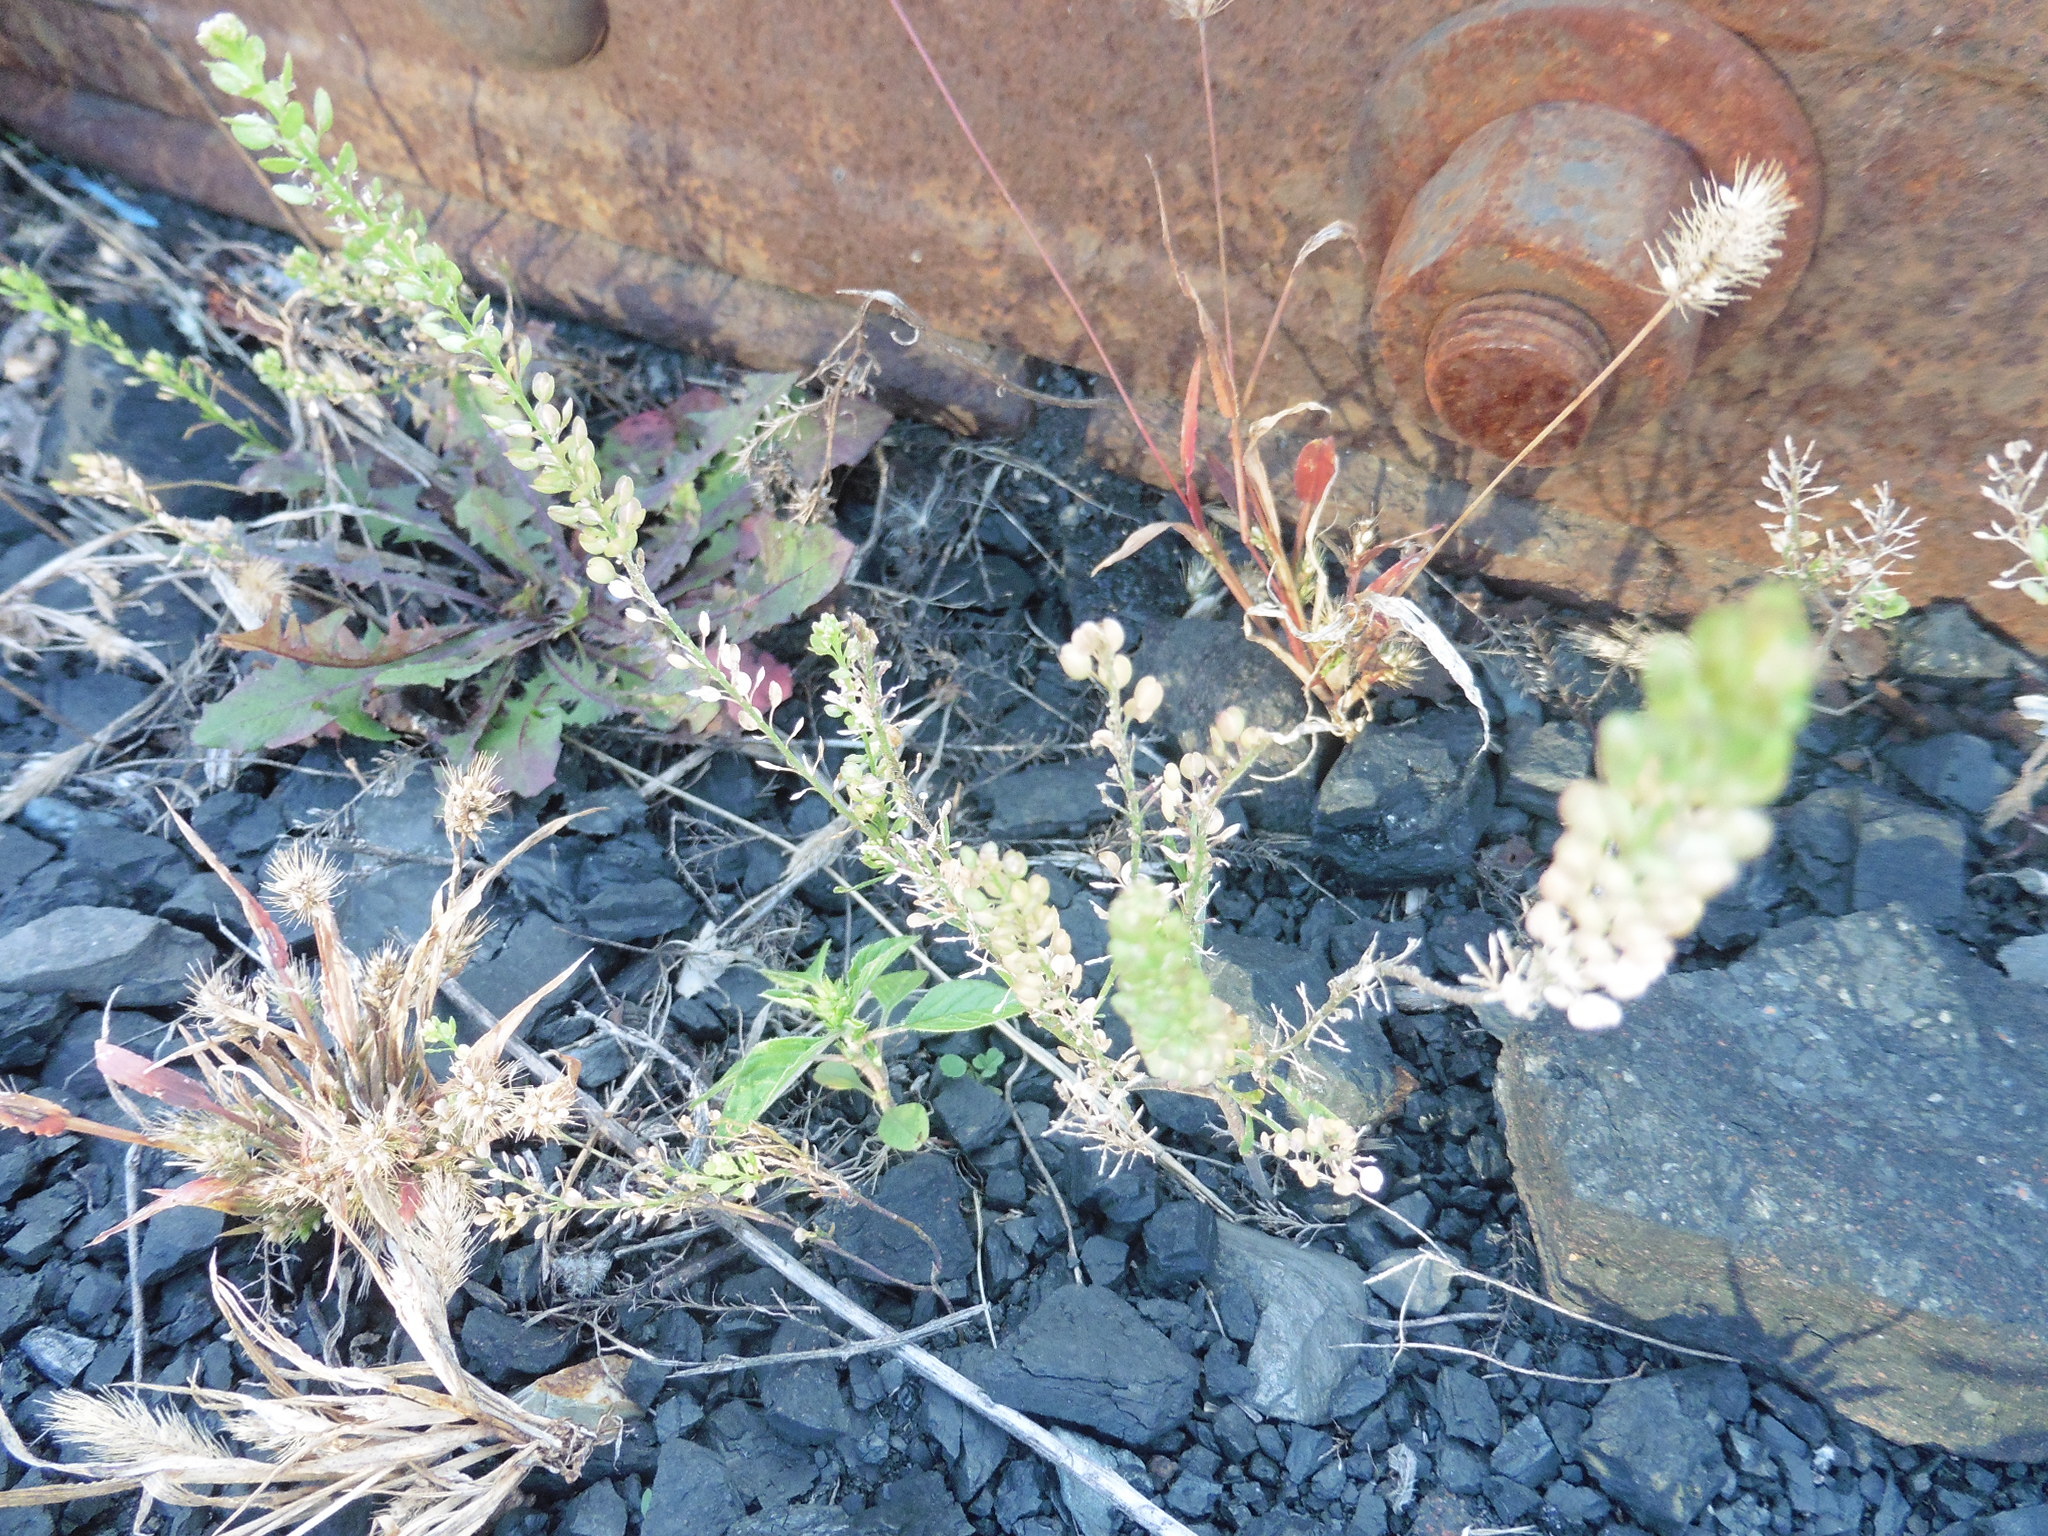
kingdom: Plantae
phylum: Tracheophyta
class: Magnoliopsida
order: Brassicales
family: Brassicaceae
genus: Lepidium
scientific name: Lepidium densiflorum
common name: Miner's pepperwort
